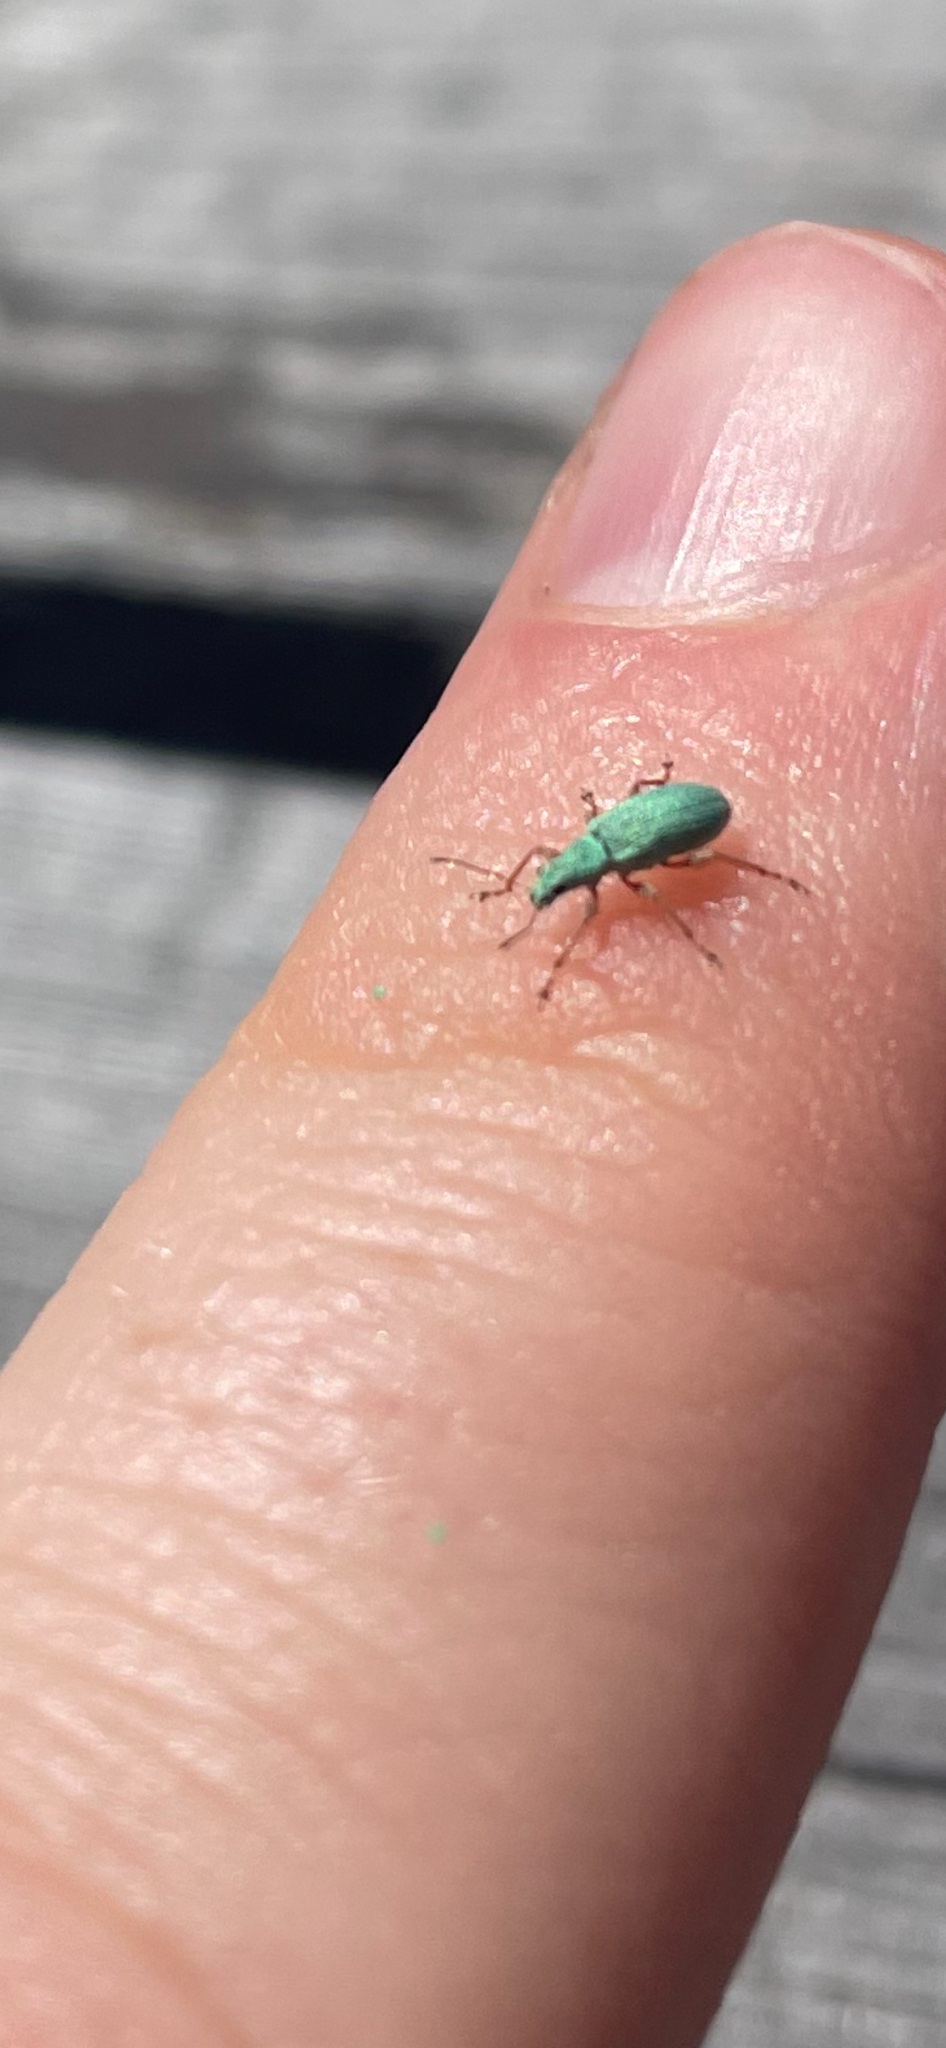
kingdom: Animalia
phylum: Arthropoda
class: Insecta
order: Coleoptera
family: Curculionidae
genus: Polydrusus
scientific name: Polydrusus impressifrons
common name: Weevil
